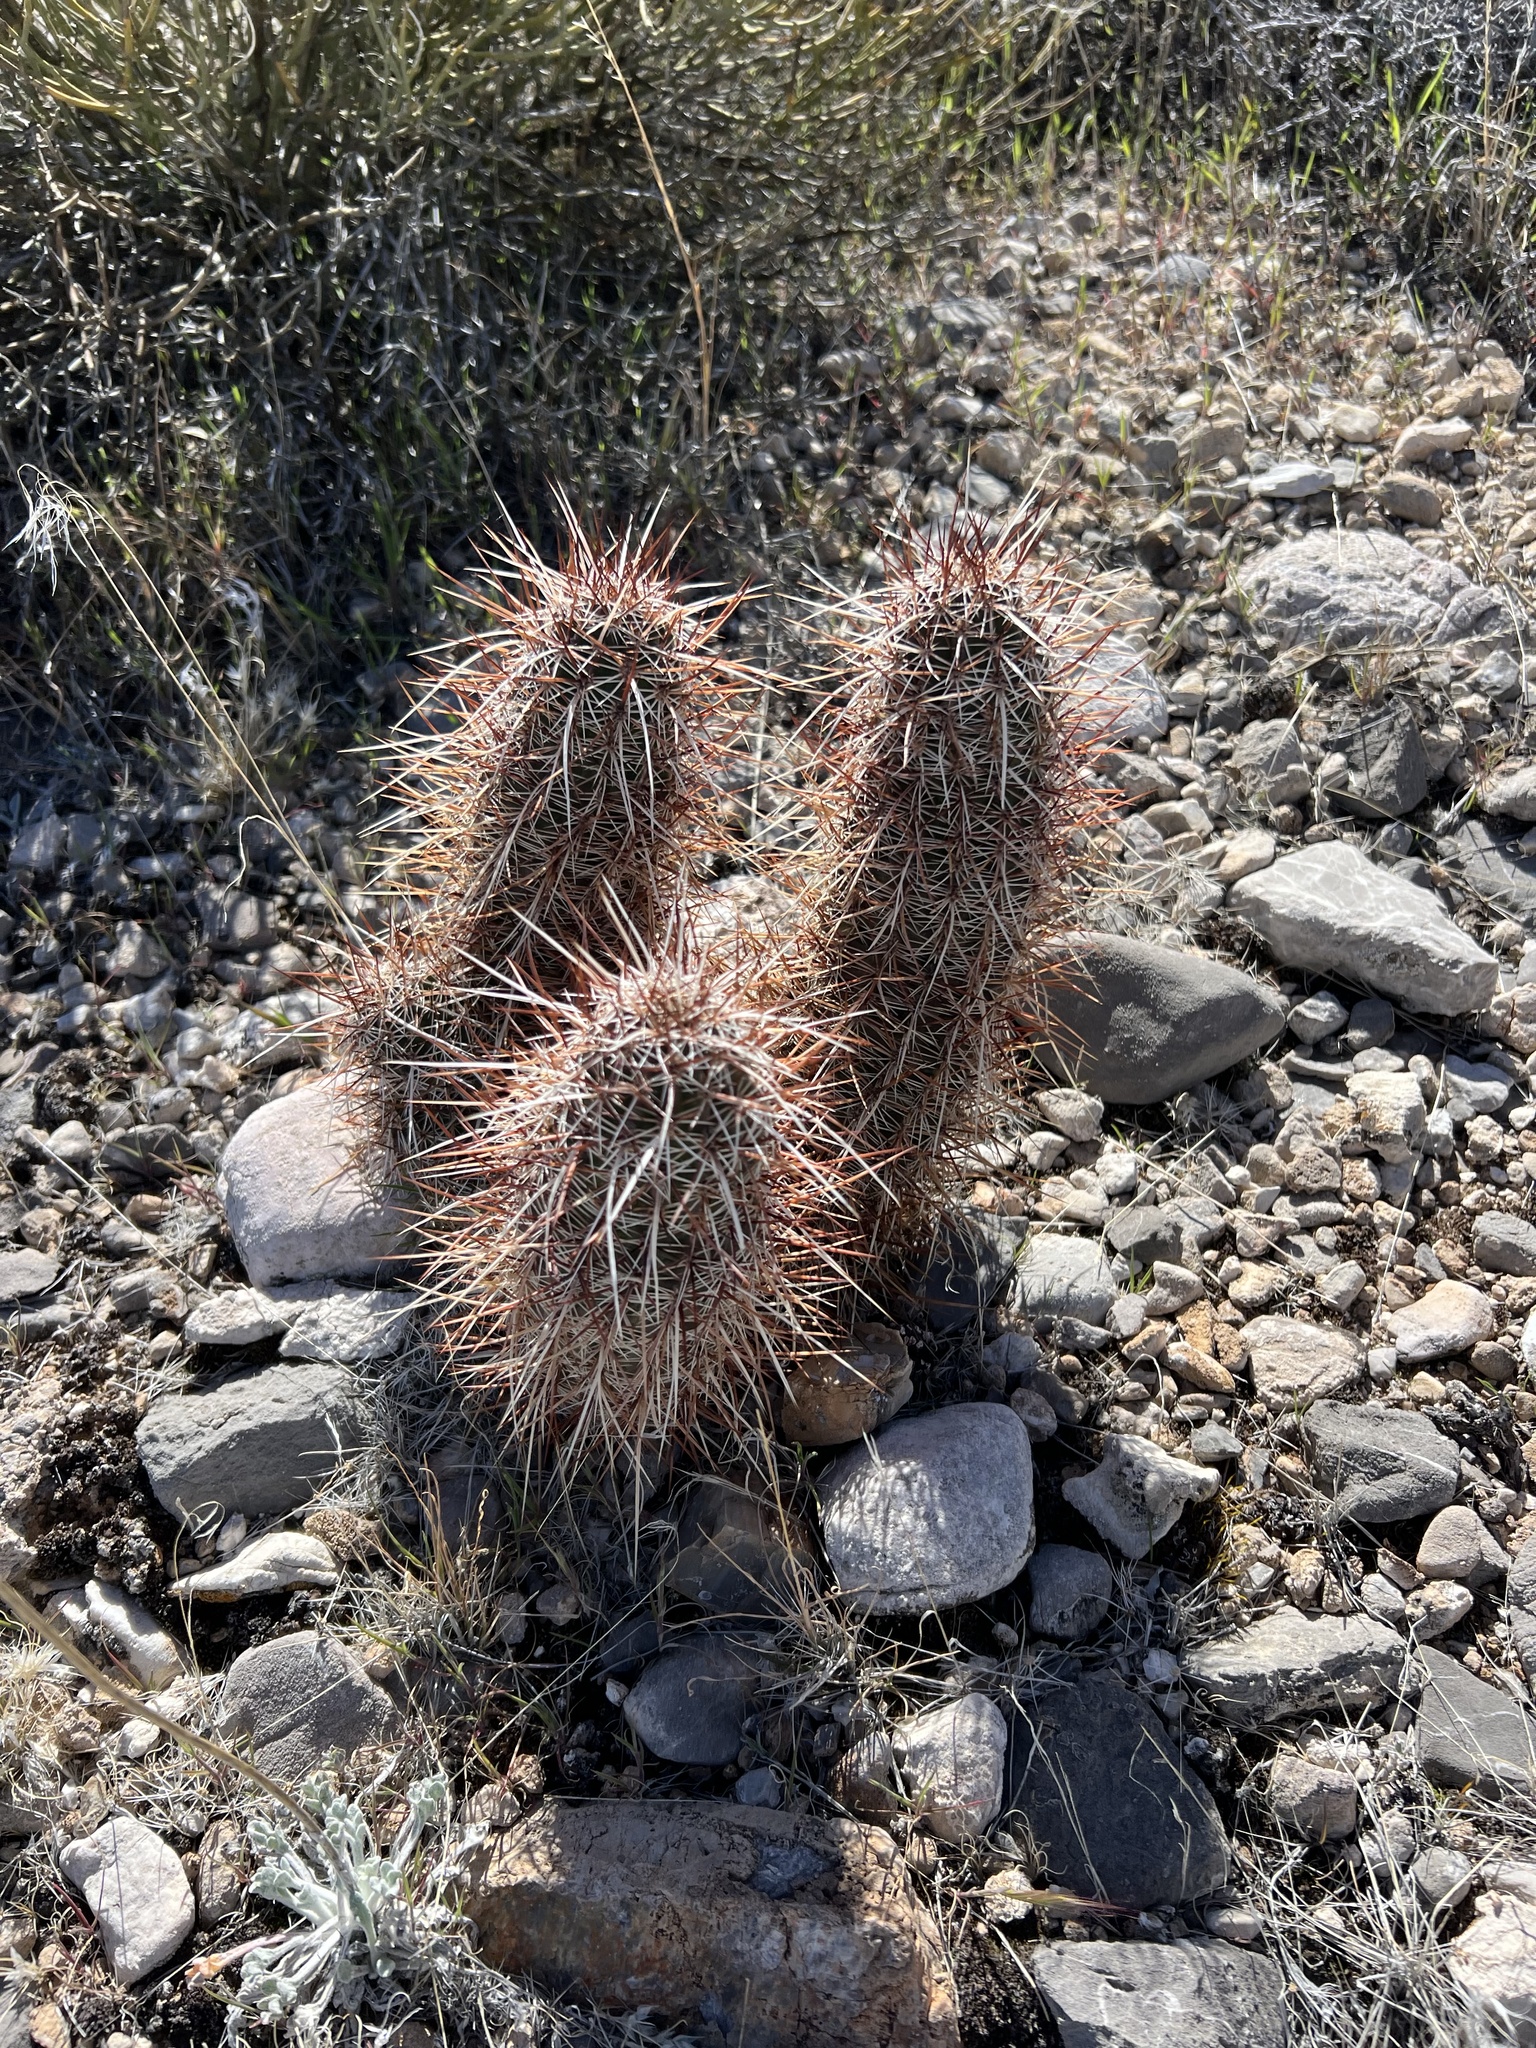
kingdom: Plantae
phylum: Tracheophyta
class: Magnoliopsida
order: Caryophyllales
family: Cactaceae
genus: Echinocereus
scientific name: Echinocereus engelmannii
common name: Engelmann's hedgehog cactus
